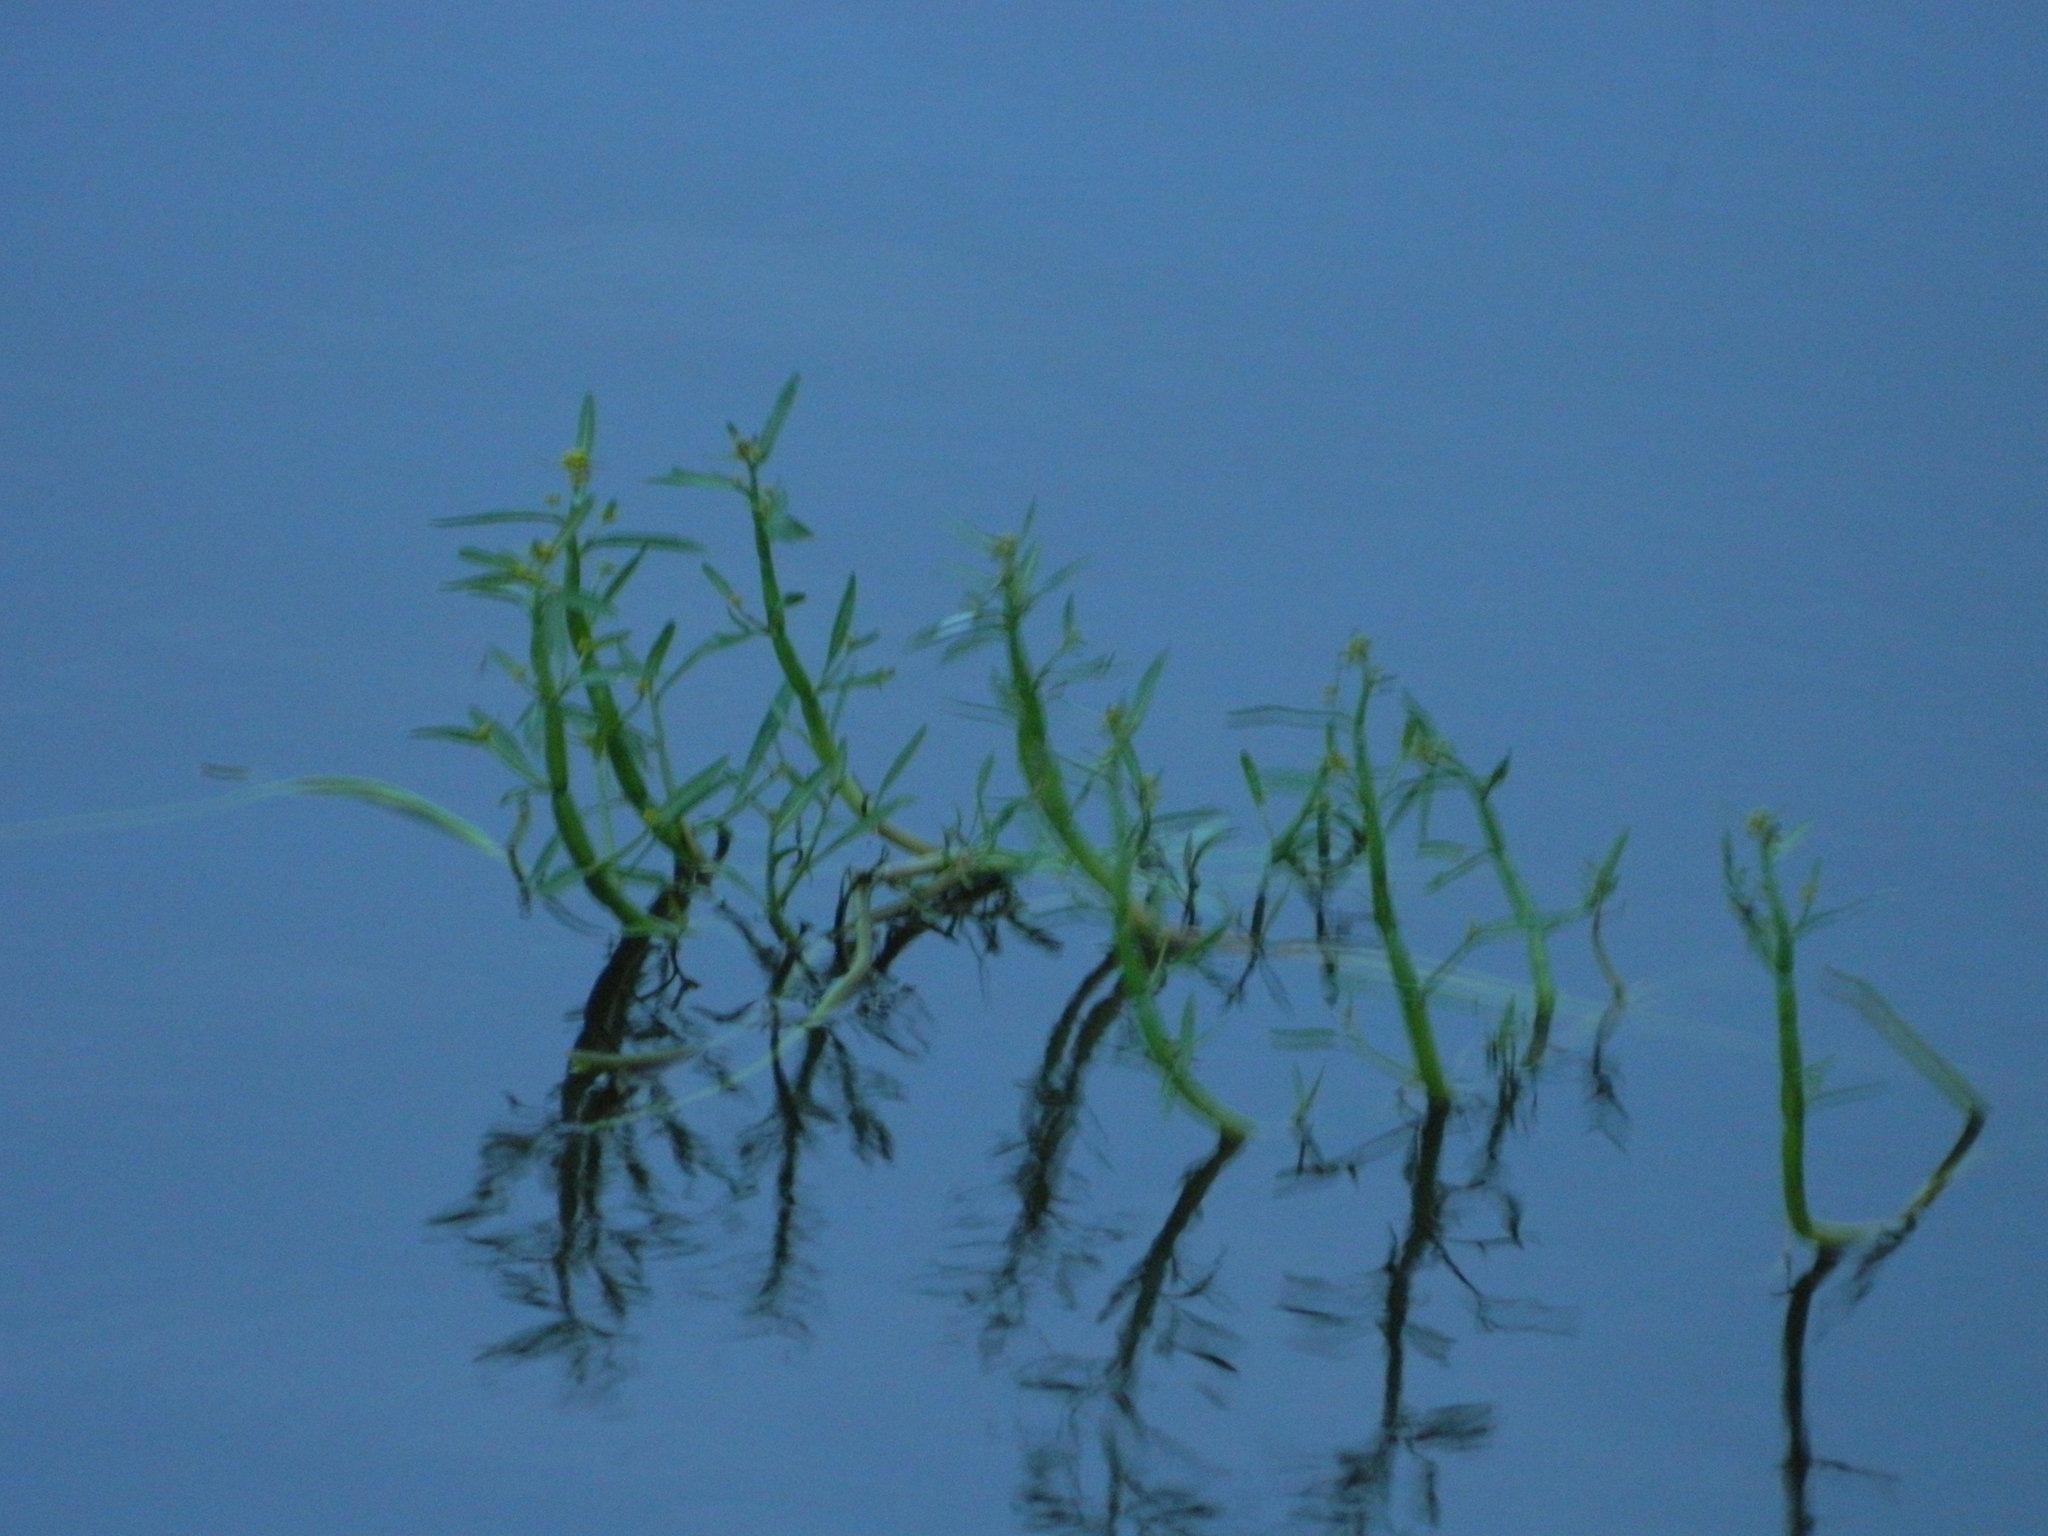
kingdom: Plantae
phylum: Tracheophyta
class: Magnoliopsida
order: Brassicales
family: Brassicaceae
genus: Rorippa
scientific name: Rorippa amphibia
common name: Great yellow-cress
